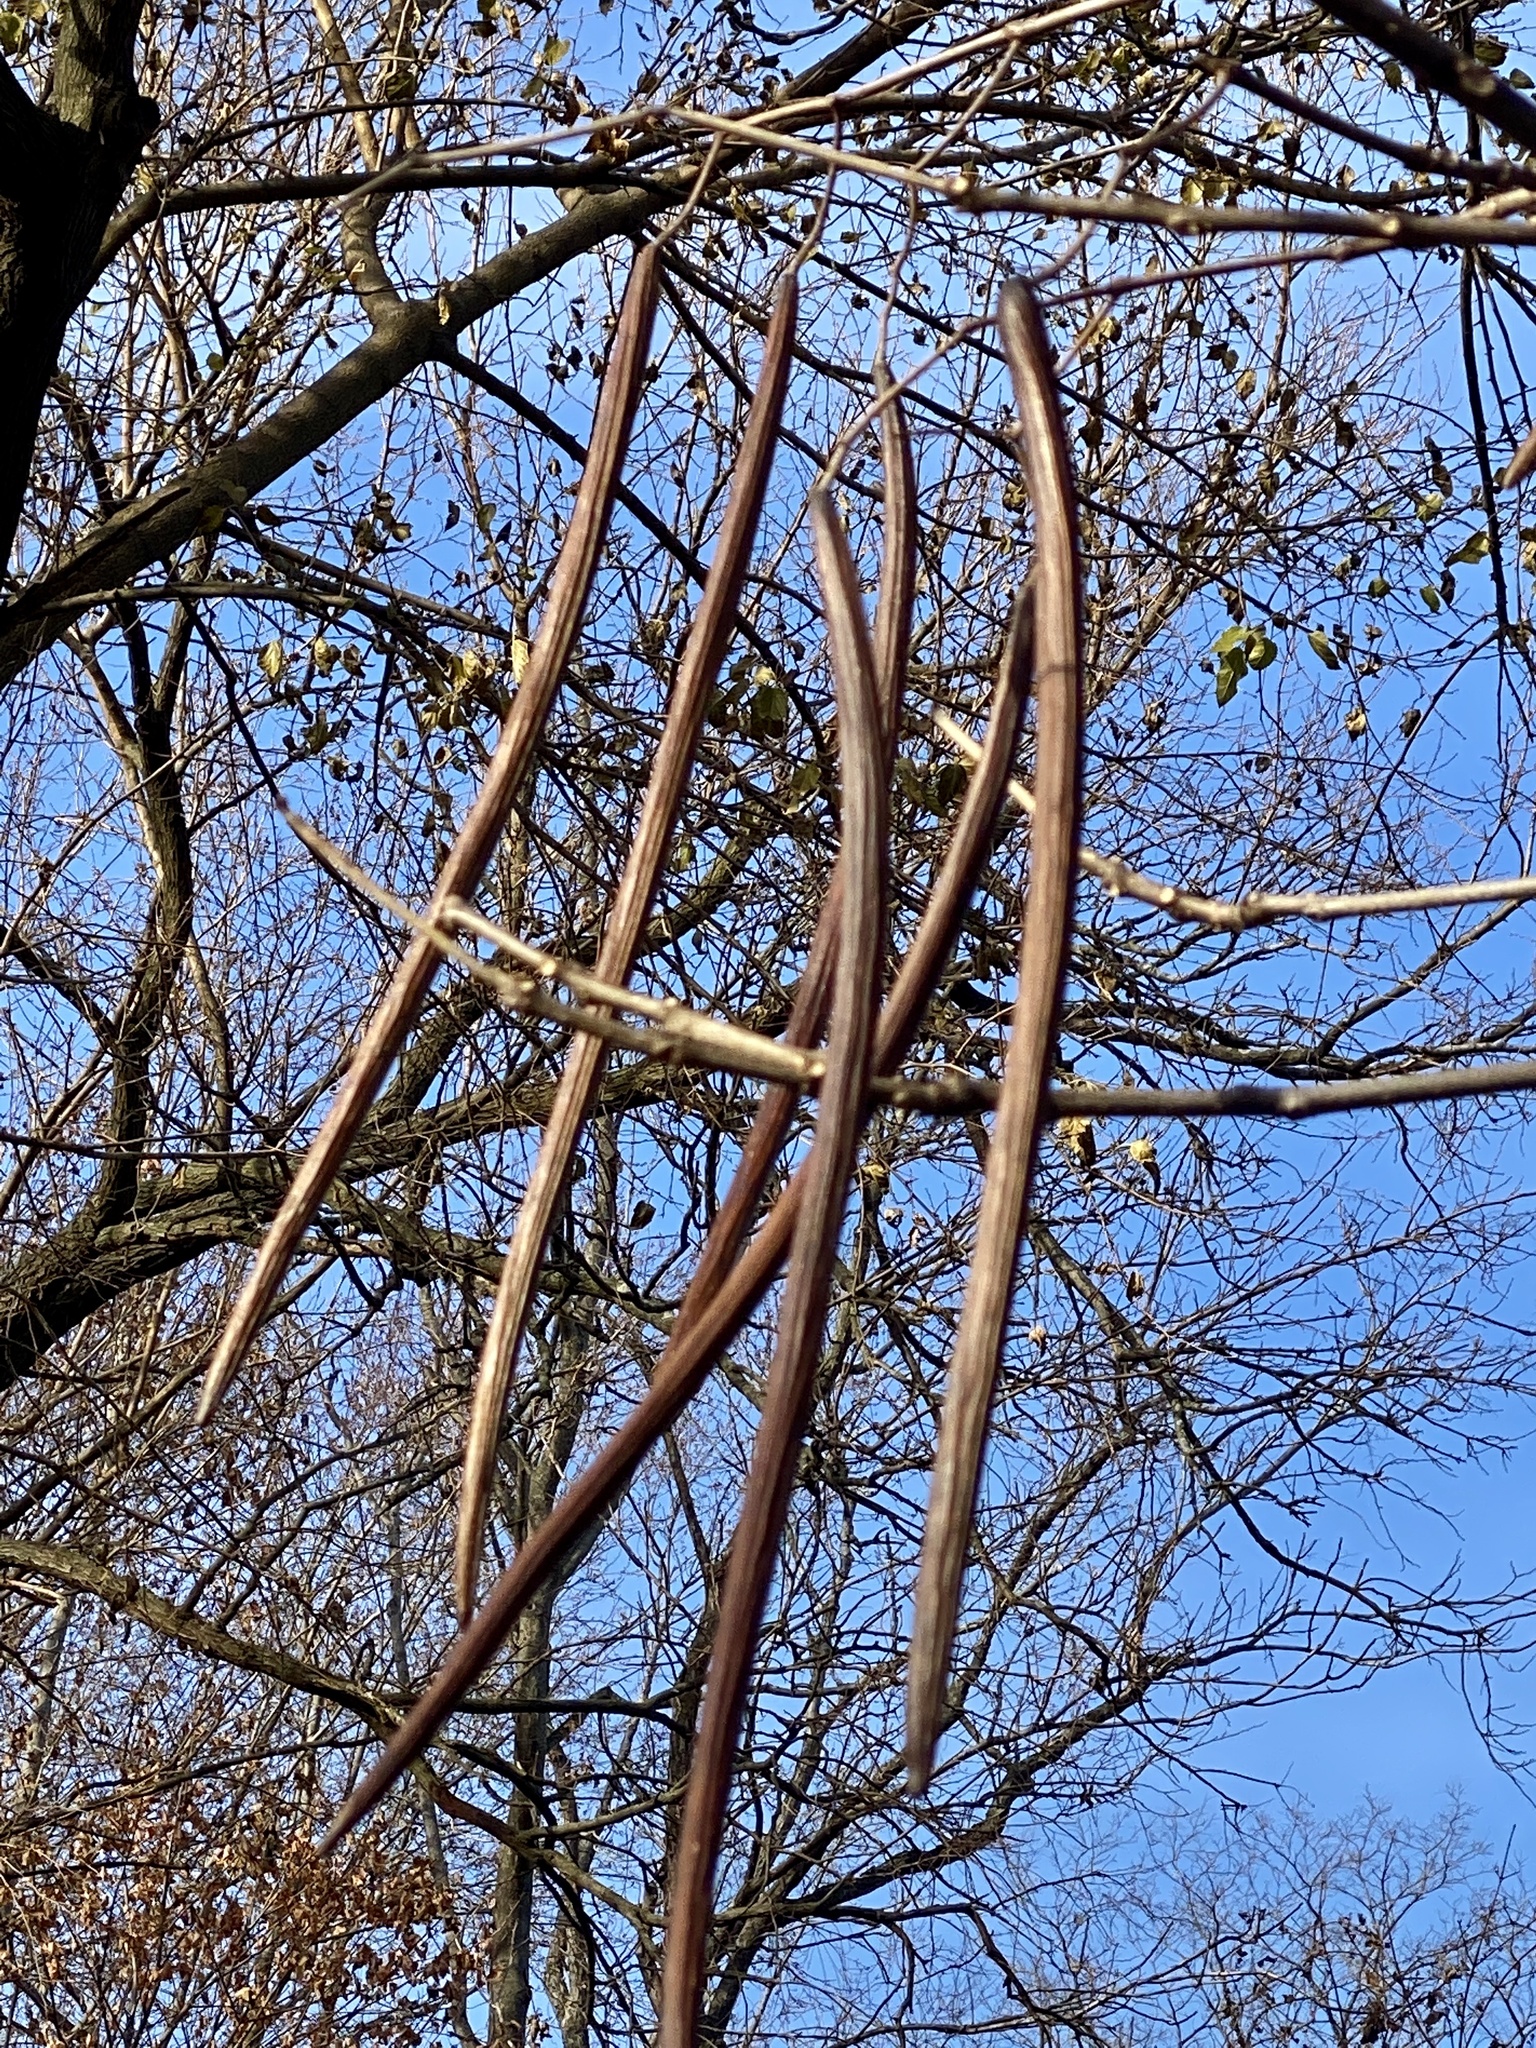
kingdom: Plantae
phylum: Tracheophyta
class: Magnoliopsida
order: Lamiales
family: Bignoniaceae
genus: Catalpa
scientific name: Catalpa
